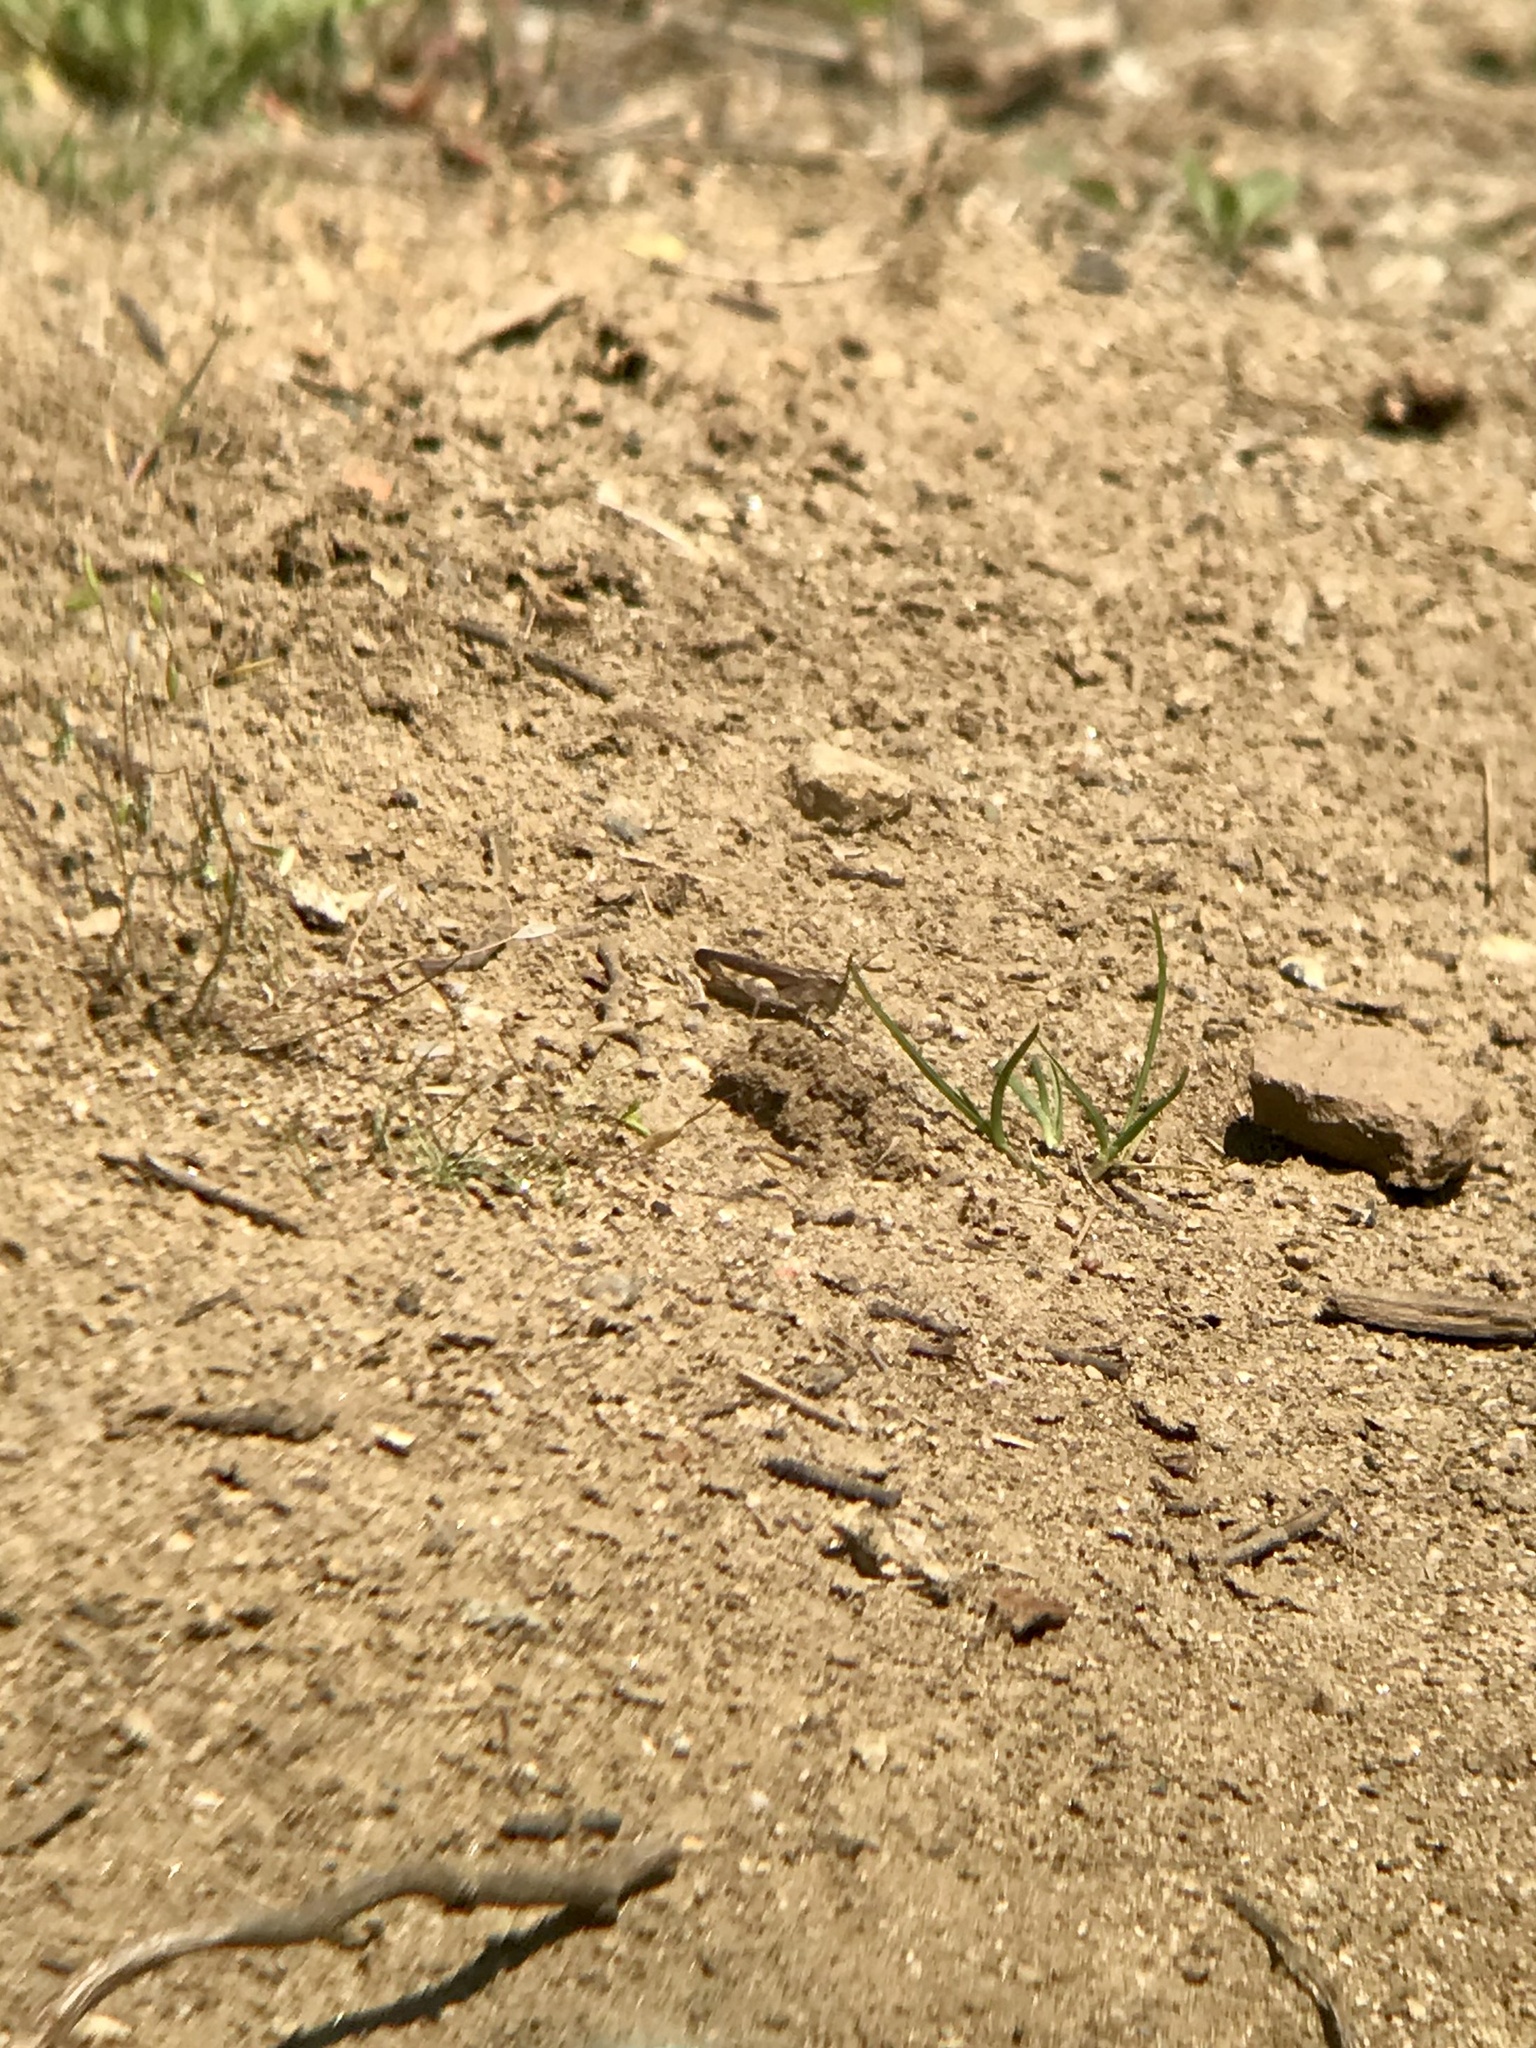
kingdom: Animalia
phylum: Arthropoda
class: Insecta
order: Orthoptera
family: Acrididae
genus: Chortophaga
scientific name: Chortophaga viridifasciata
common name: Green-striped grasshopper
